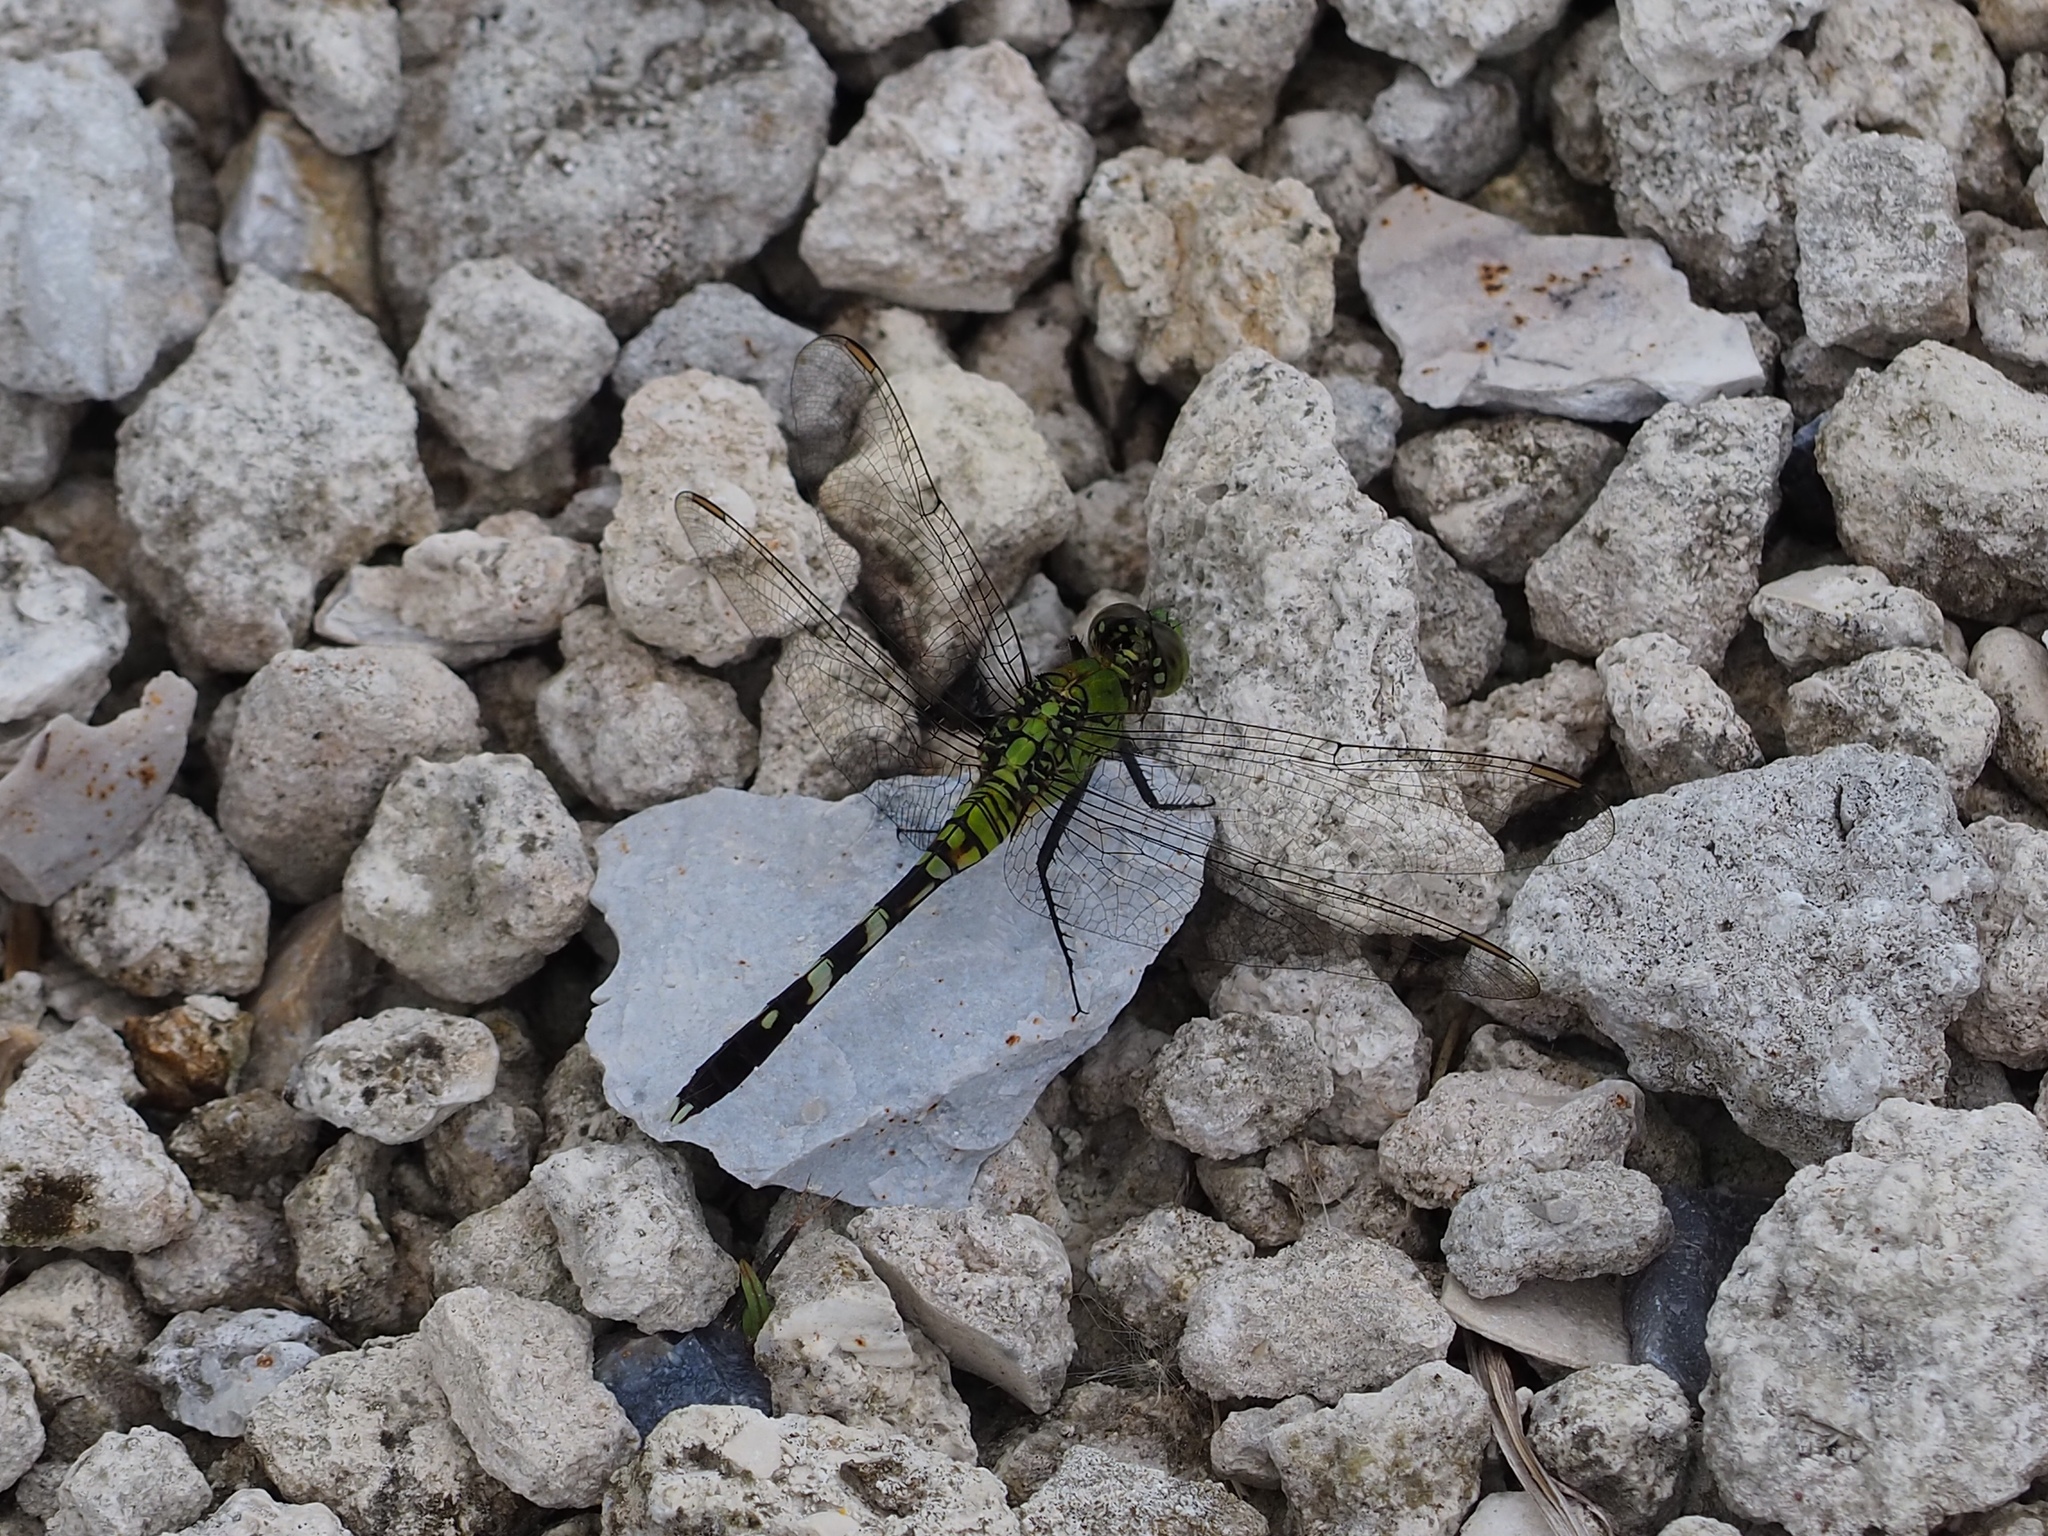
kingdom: Animalia
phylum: Arthropoda
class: Insecta
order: Odonata
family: Libellulidae
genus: Erythemis
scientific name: Erythemis simplicicollis
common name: Eastern pondhawk
